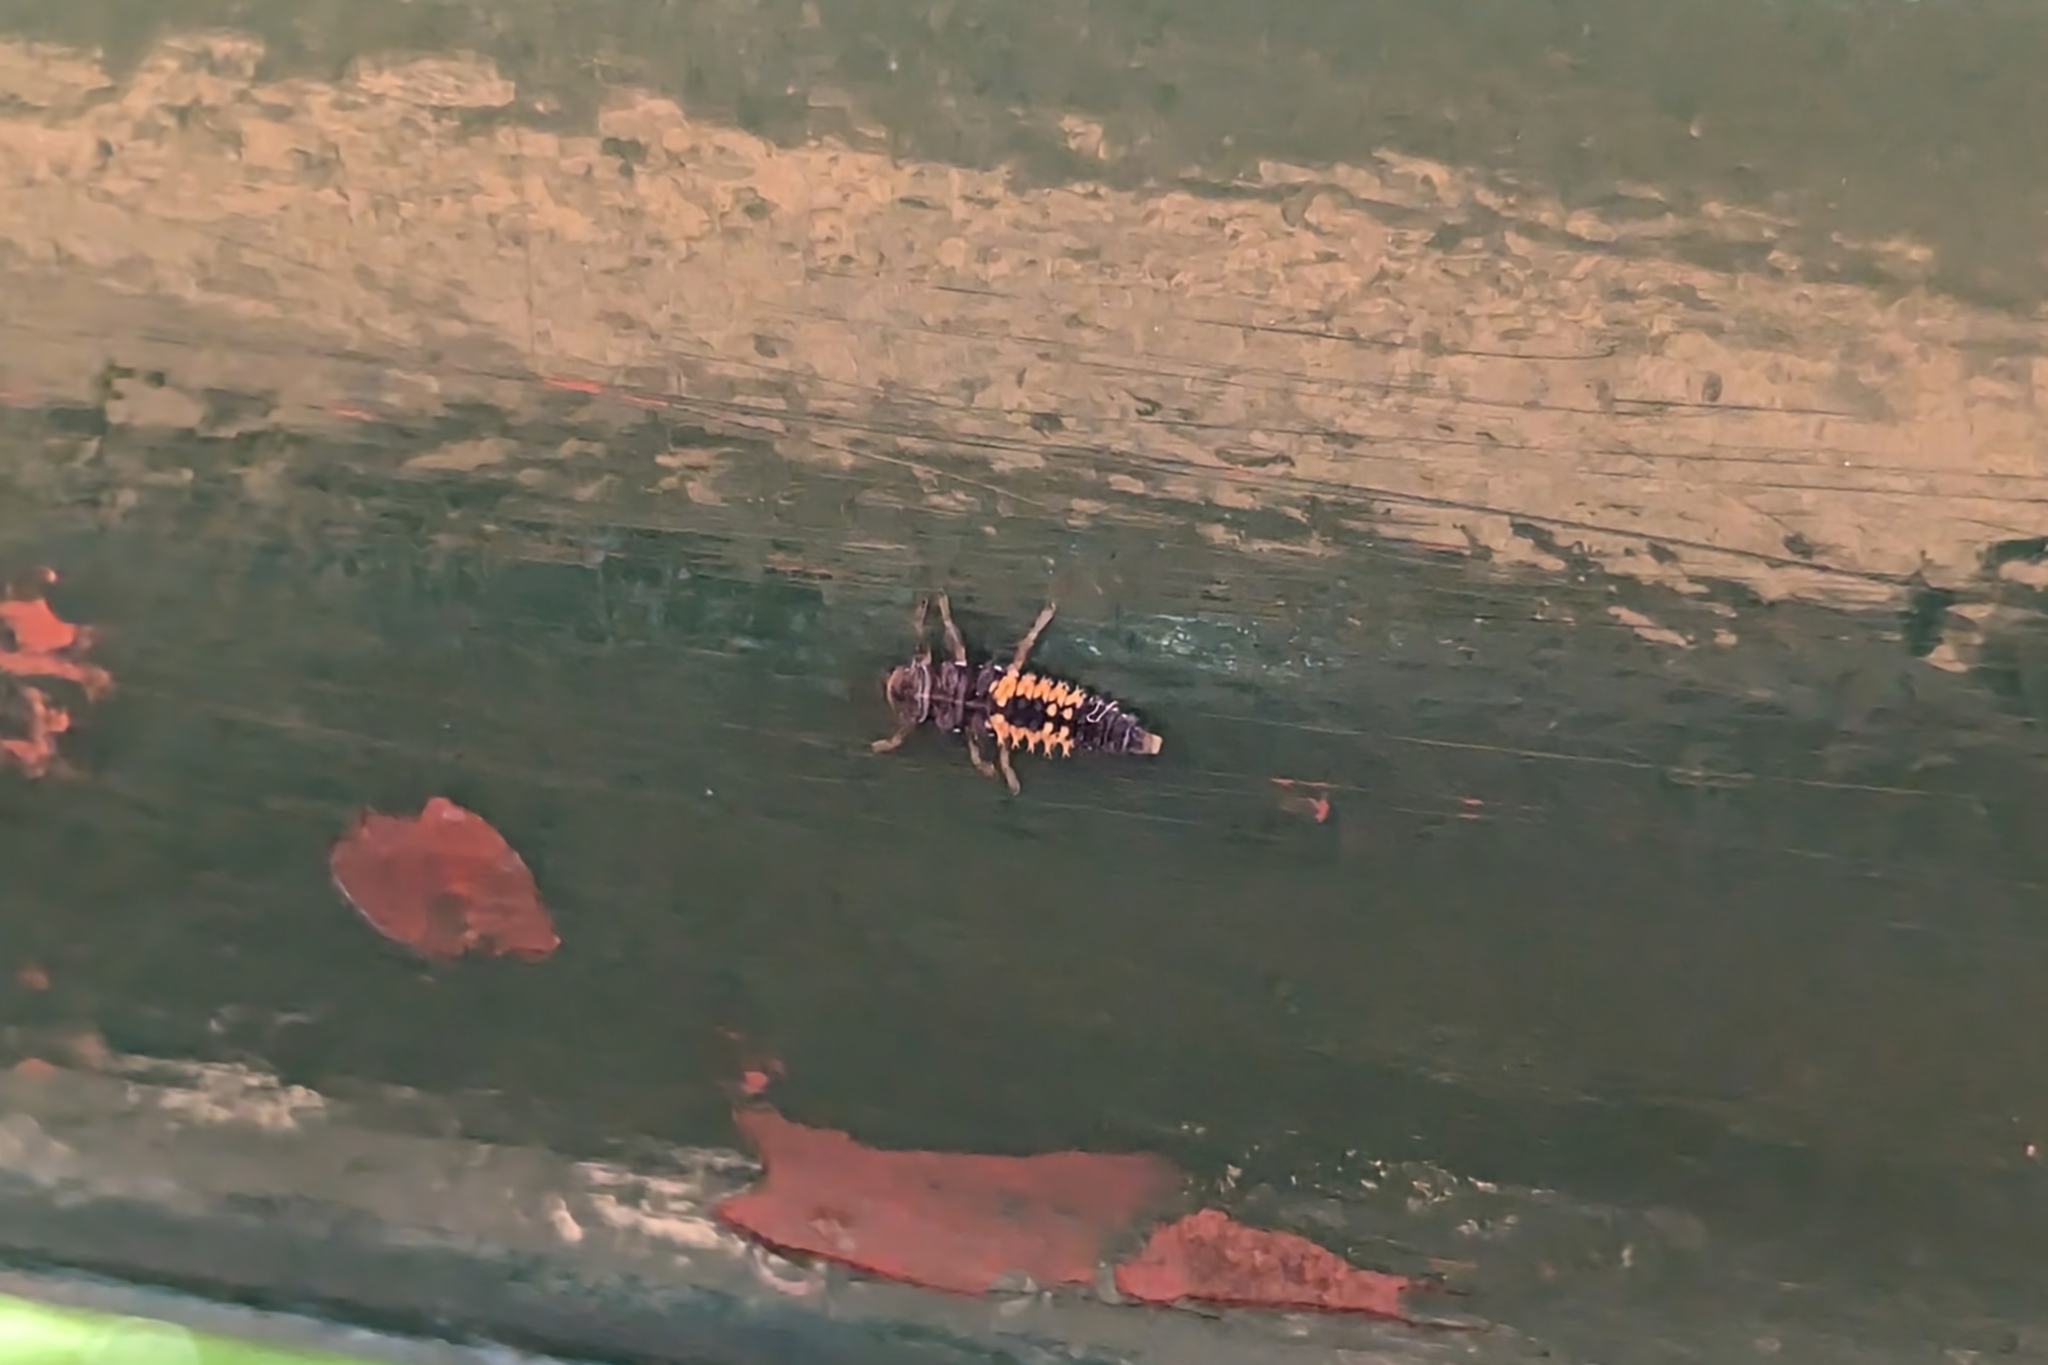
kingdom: Animalia
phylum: Arthropoda
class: Insecta
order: Coleoptera
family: Coccinellidae
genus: Harmonia
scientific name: Harmonia axyridis
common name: Harlequin ladybird
